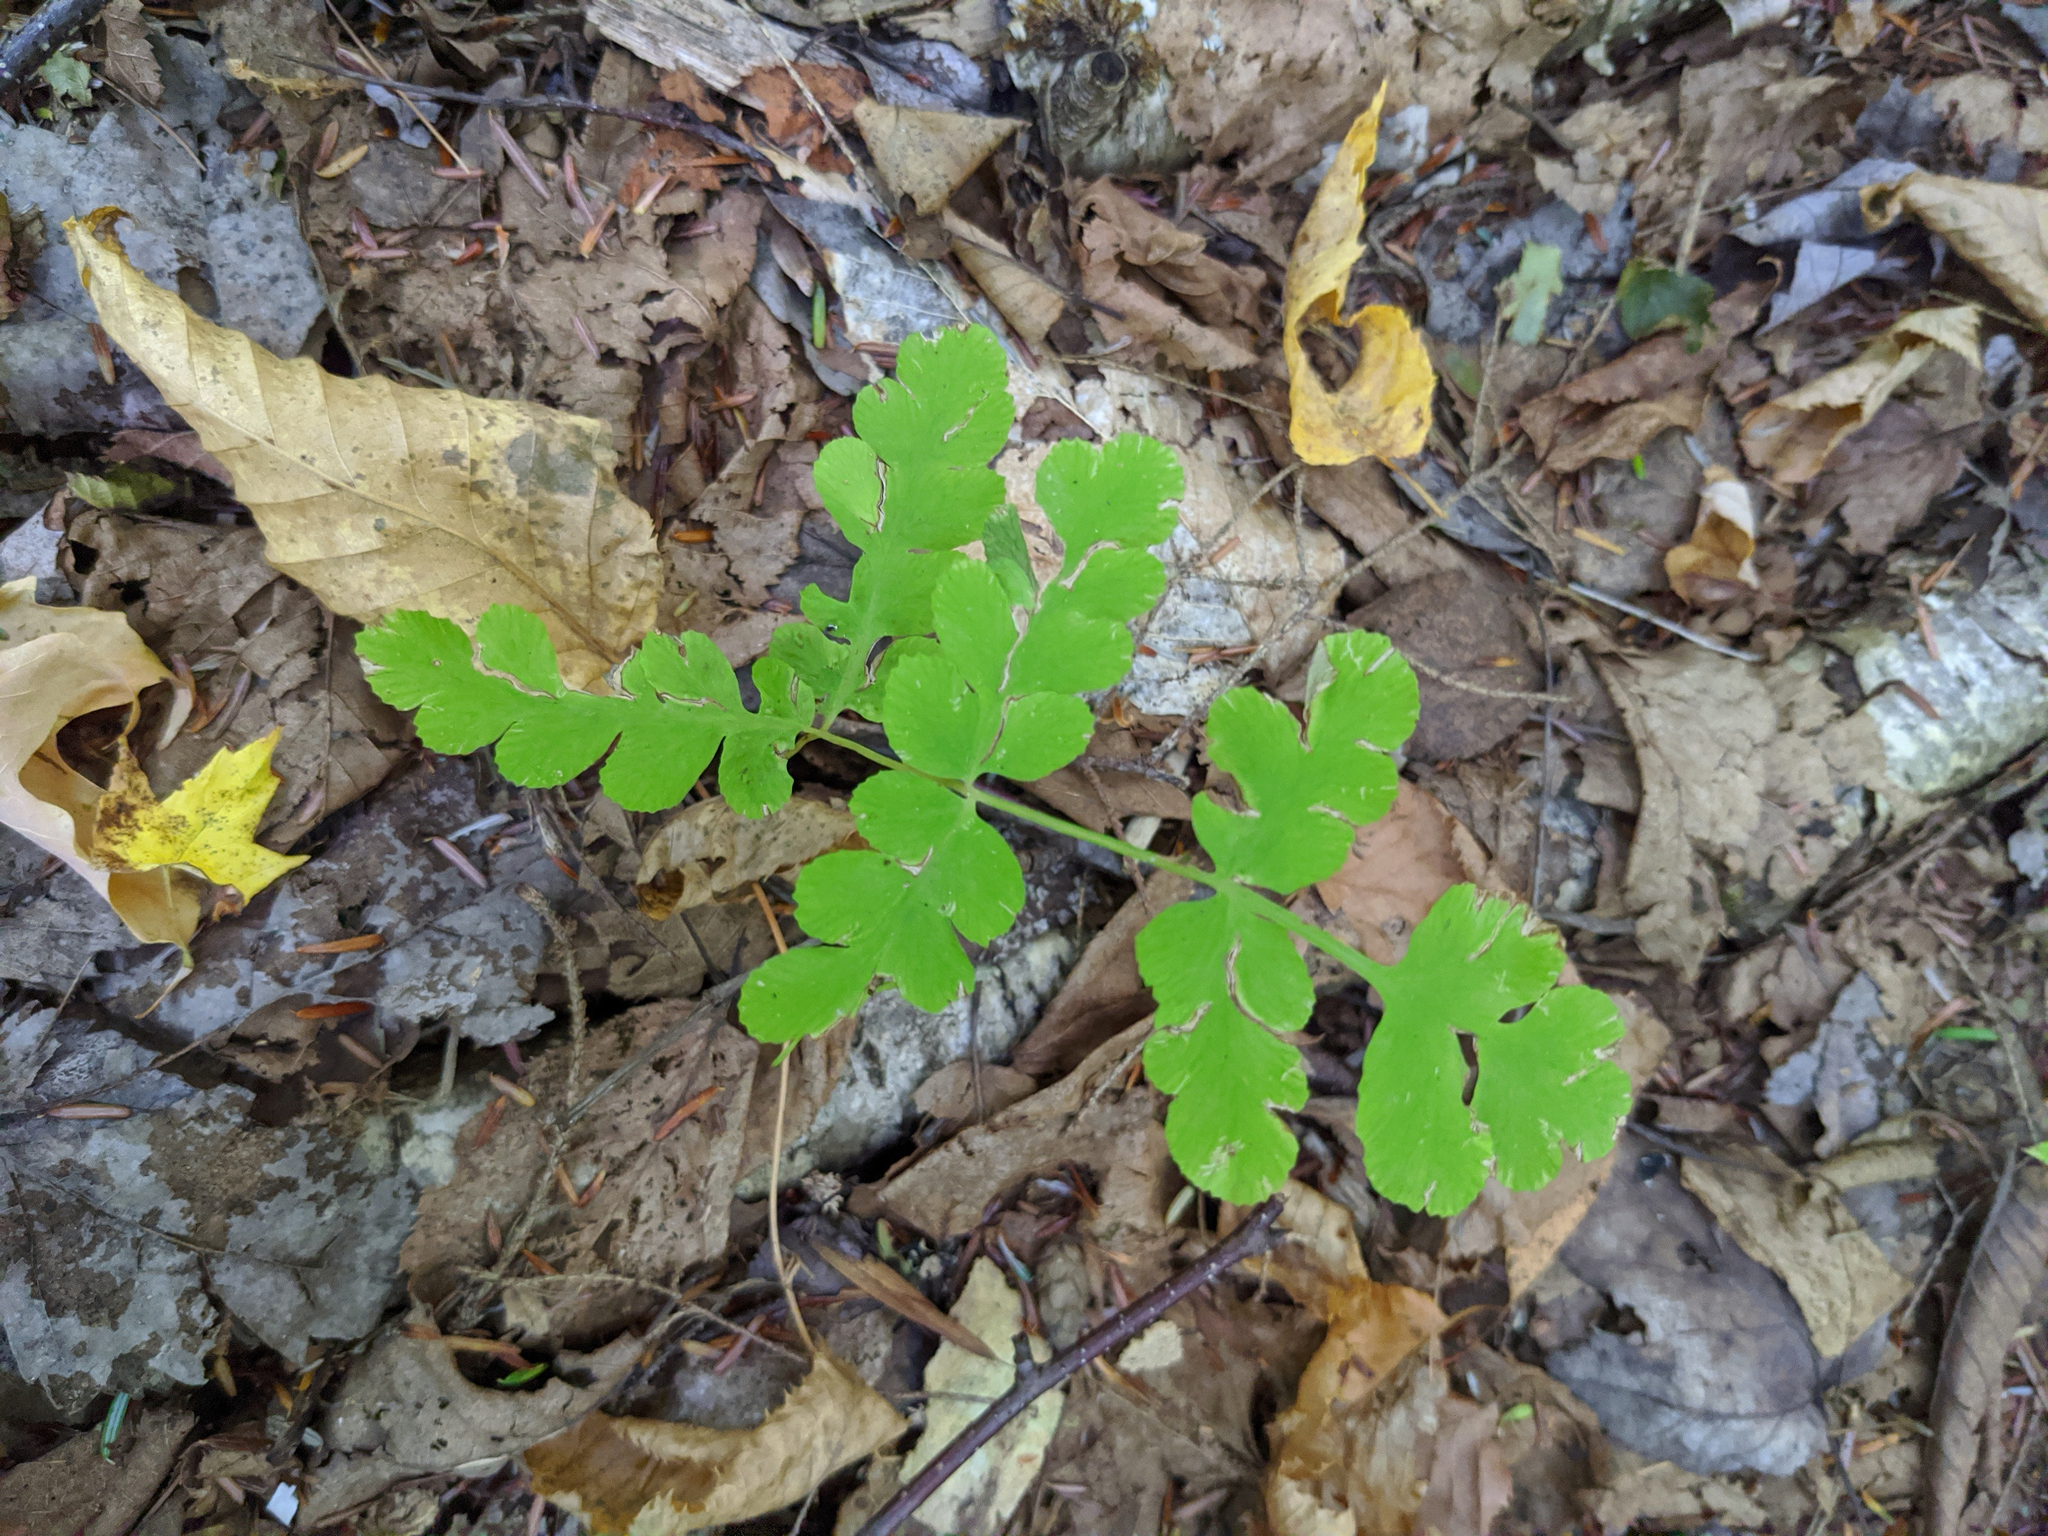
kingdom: Plantae
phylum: Tracheophyta
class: Polypodiopsida
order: Osmundales
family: Osmundaceae
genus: Claytosmunda
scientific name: Claytosmunda claytoniana
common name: Clayton's fern
